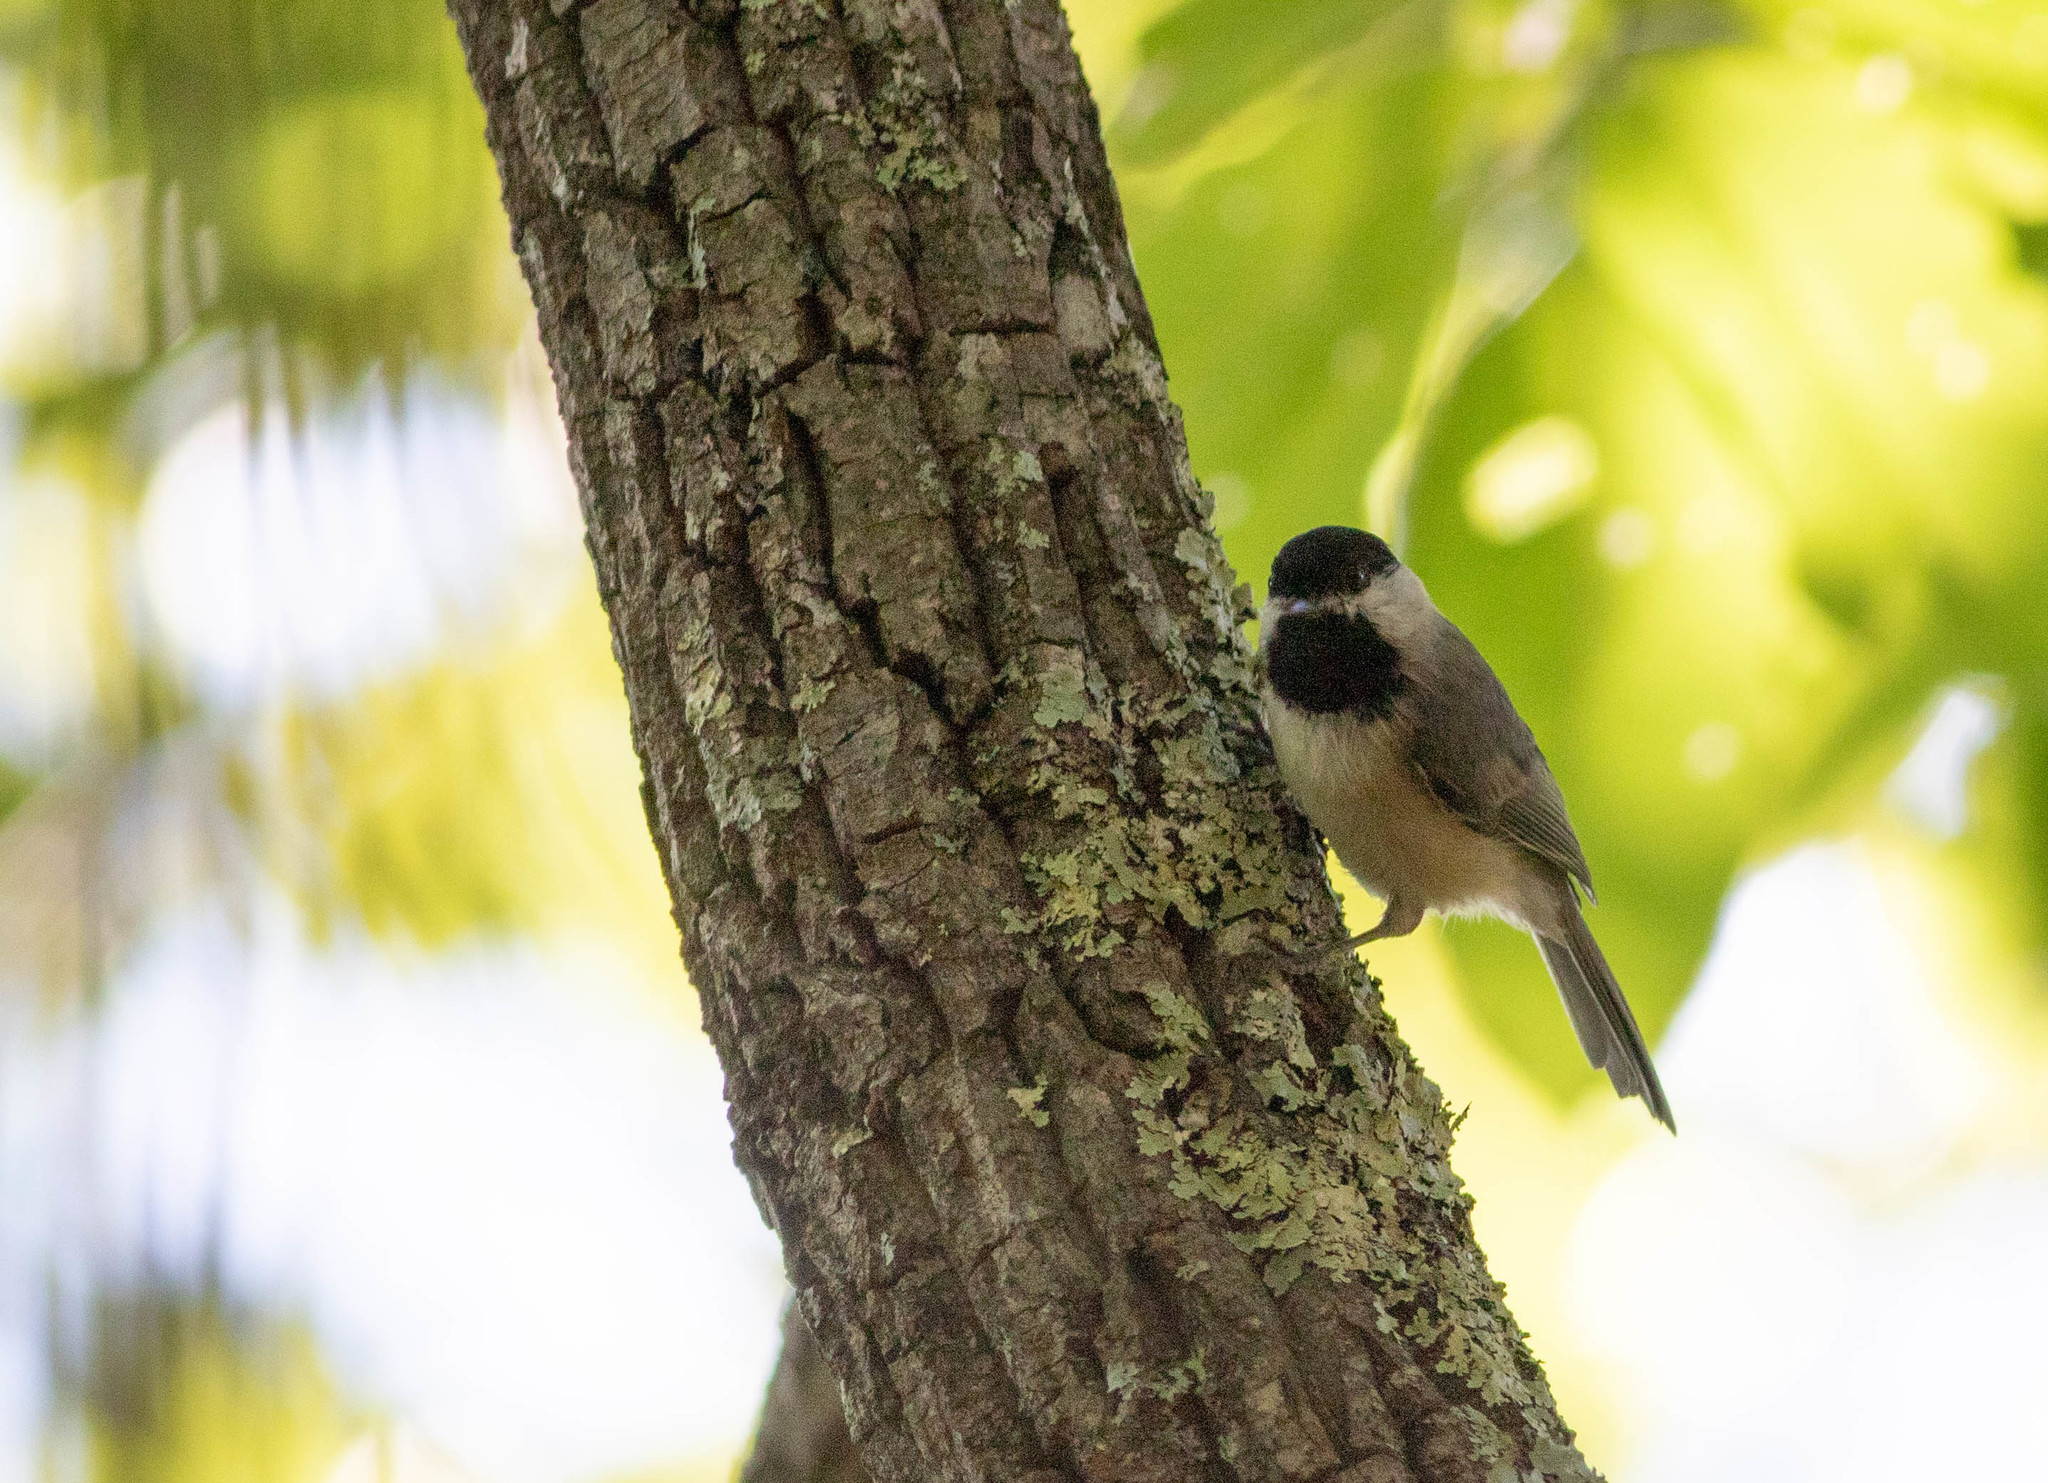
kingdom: Animalia
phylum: Chordata
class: Aves
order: Passeriformes
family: Paridae
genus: Poecile
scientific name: Poecile carolinensis
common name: Carolina chickadee
